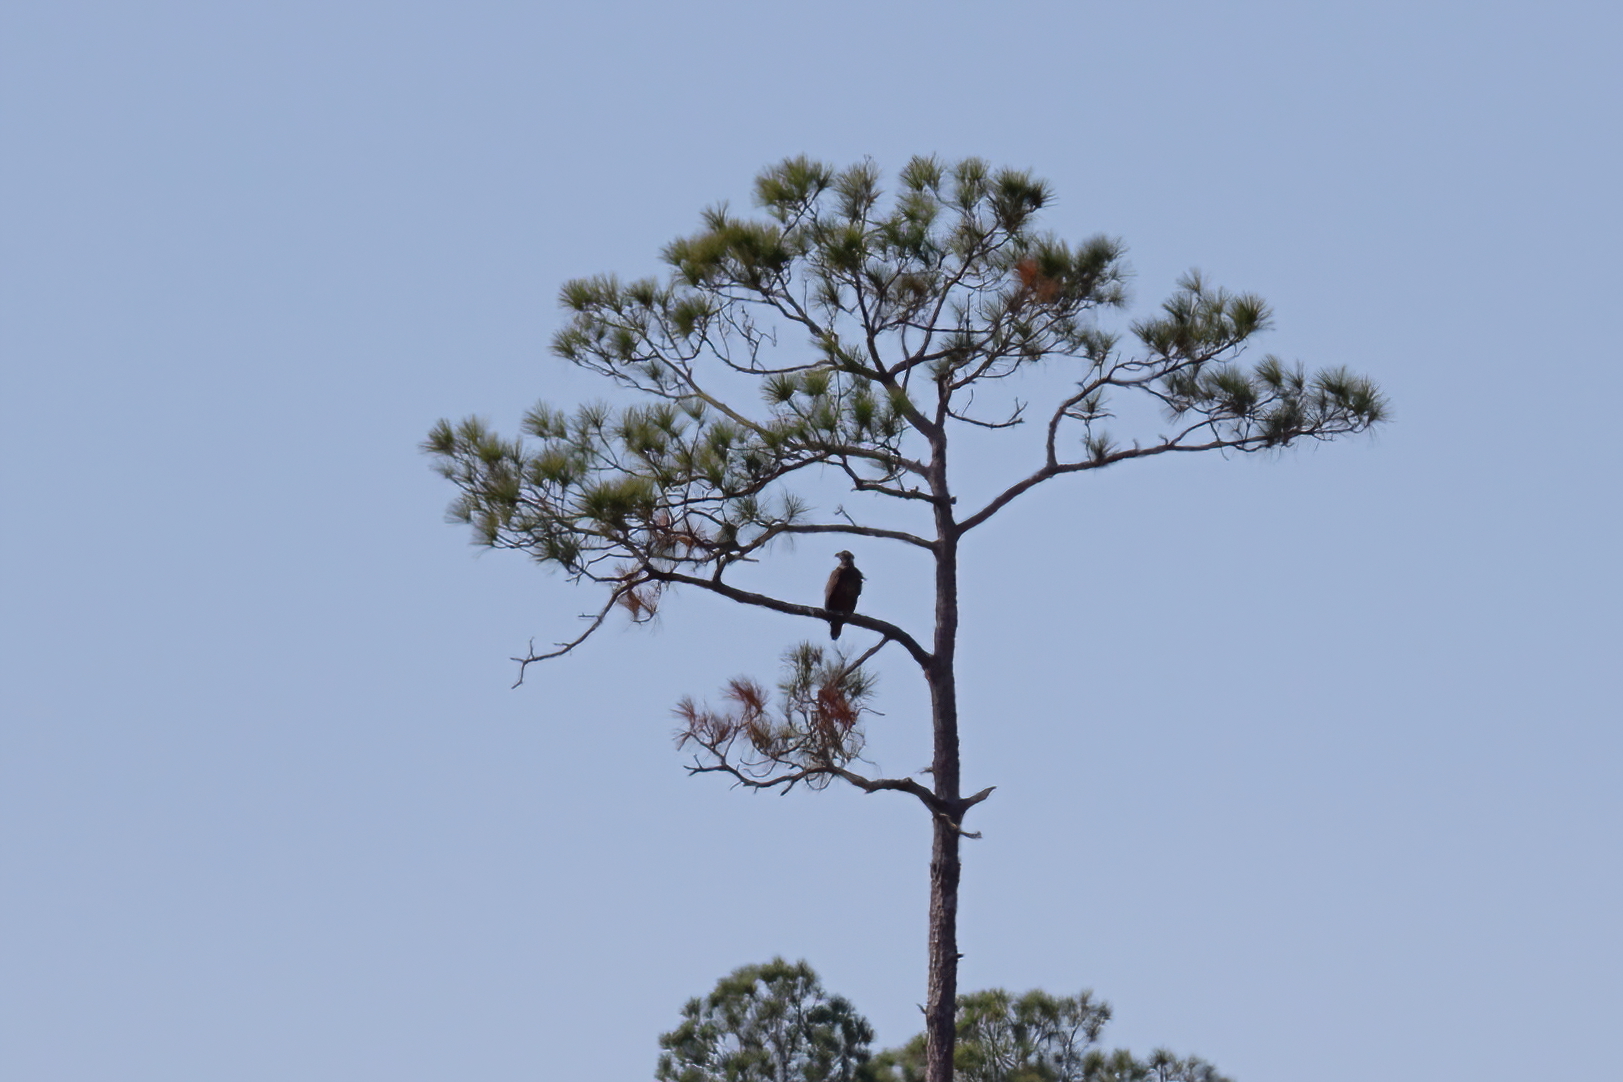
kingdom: Animalia
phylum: Chordata
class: Aves
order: Accipitriformes
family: Accipitridae
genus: Haliaeetus
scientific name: Haliaeetus leucocephalus
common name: Bald eagle
